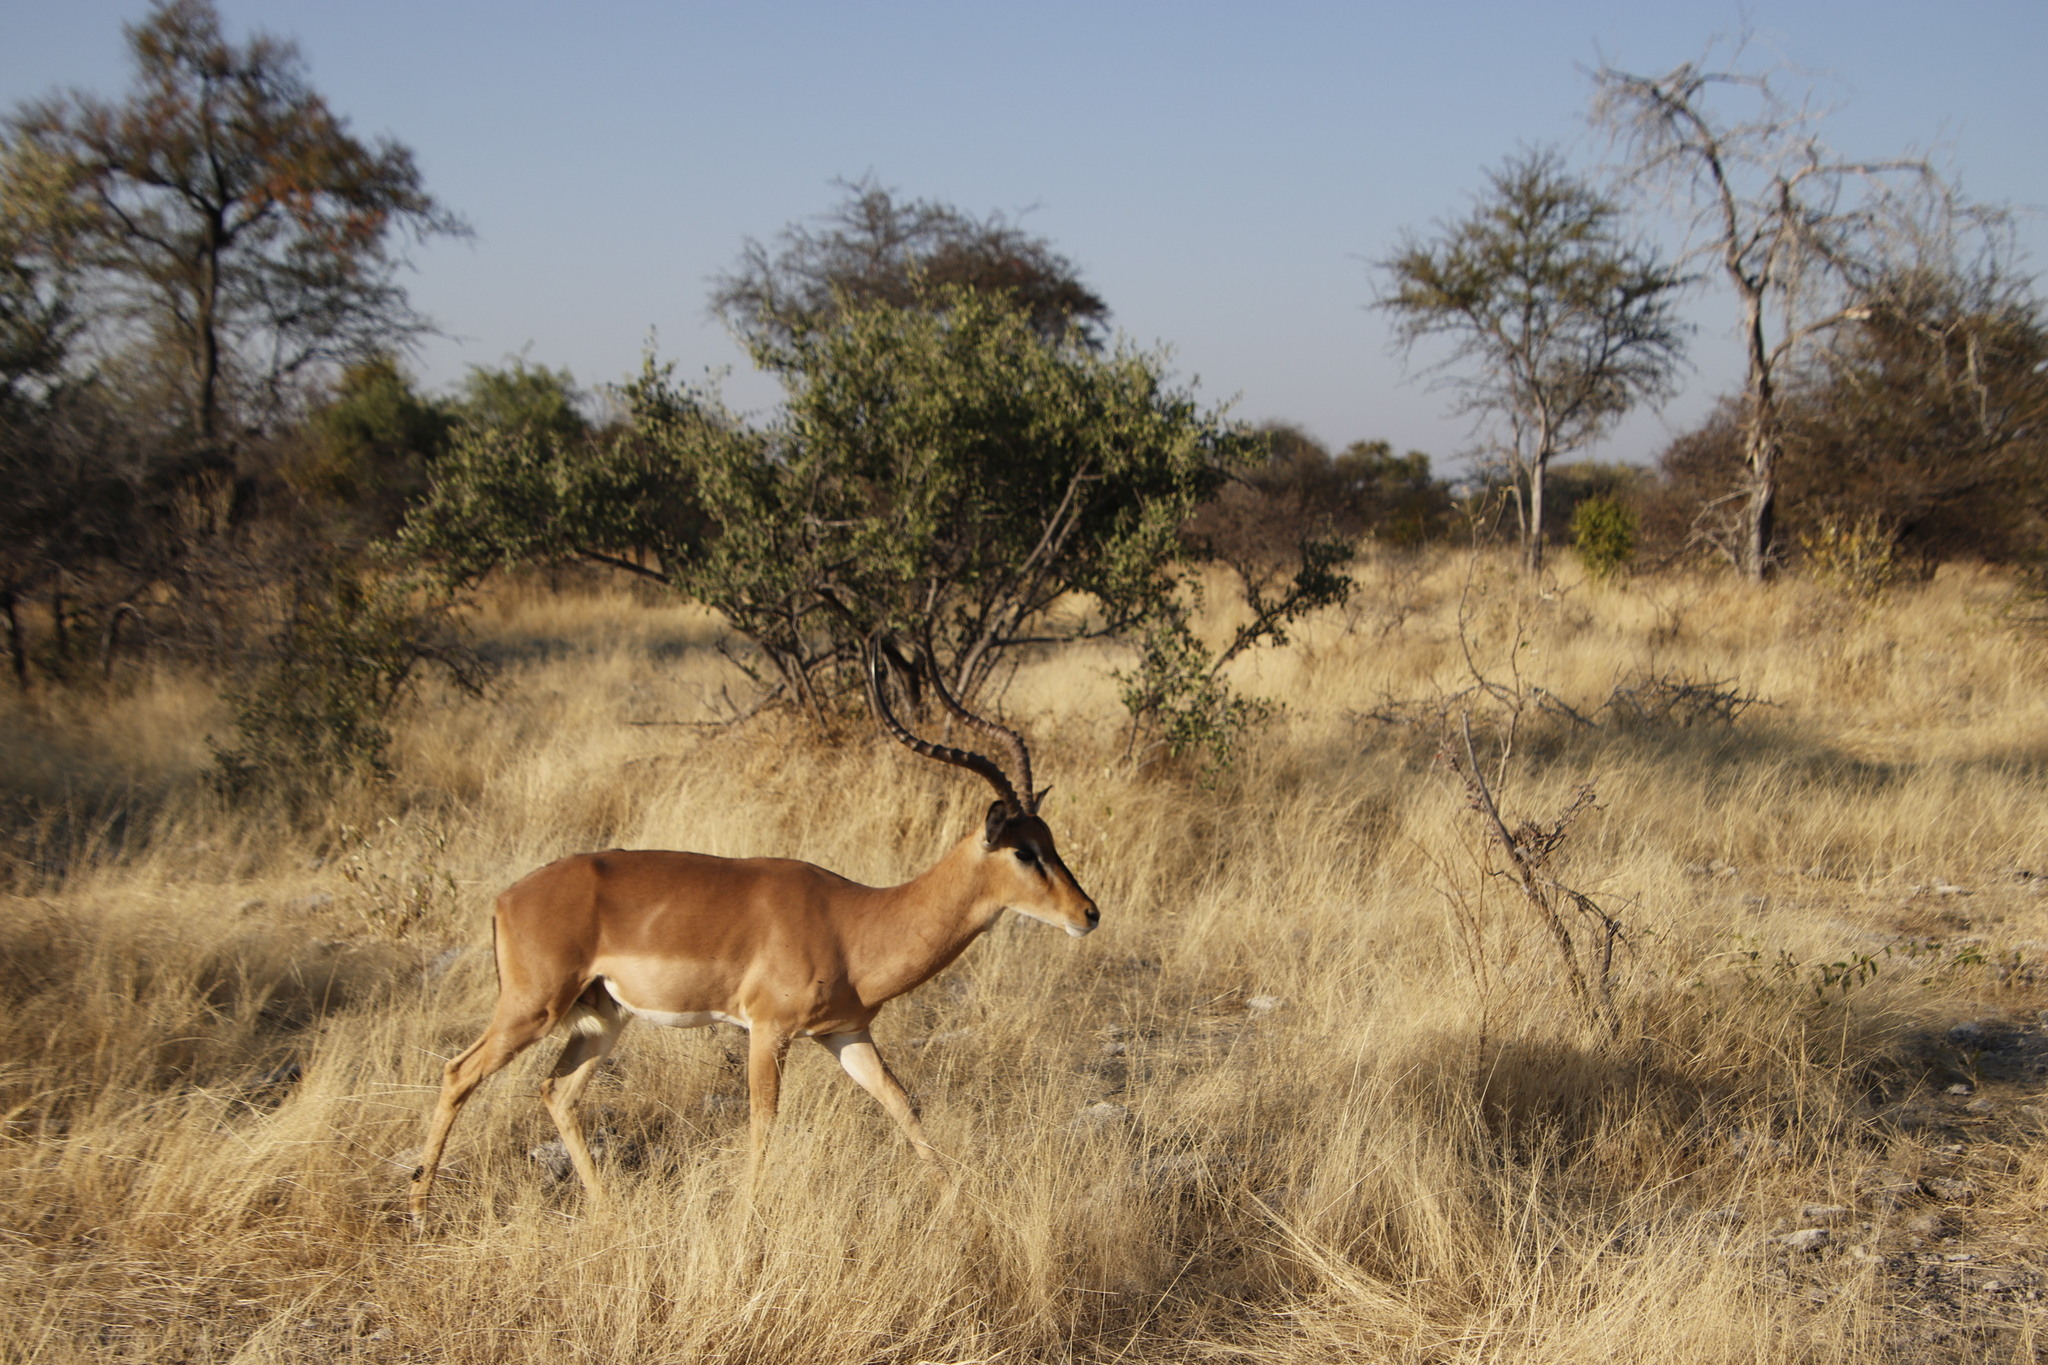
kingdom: Animalia
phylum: Chordata
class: Mammalia
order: Artiodactyla
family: Bovidae
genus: Aepyceros
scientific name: Aepyceros melampus
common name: Impala
